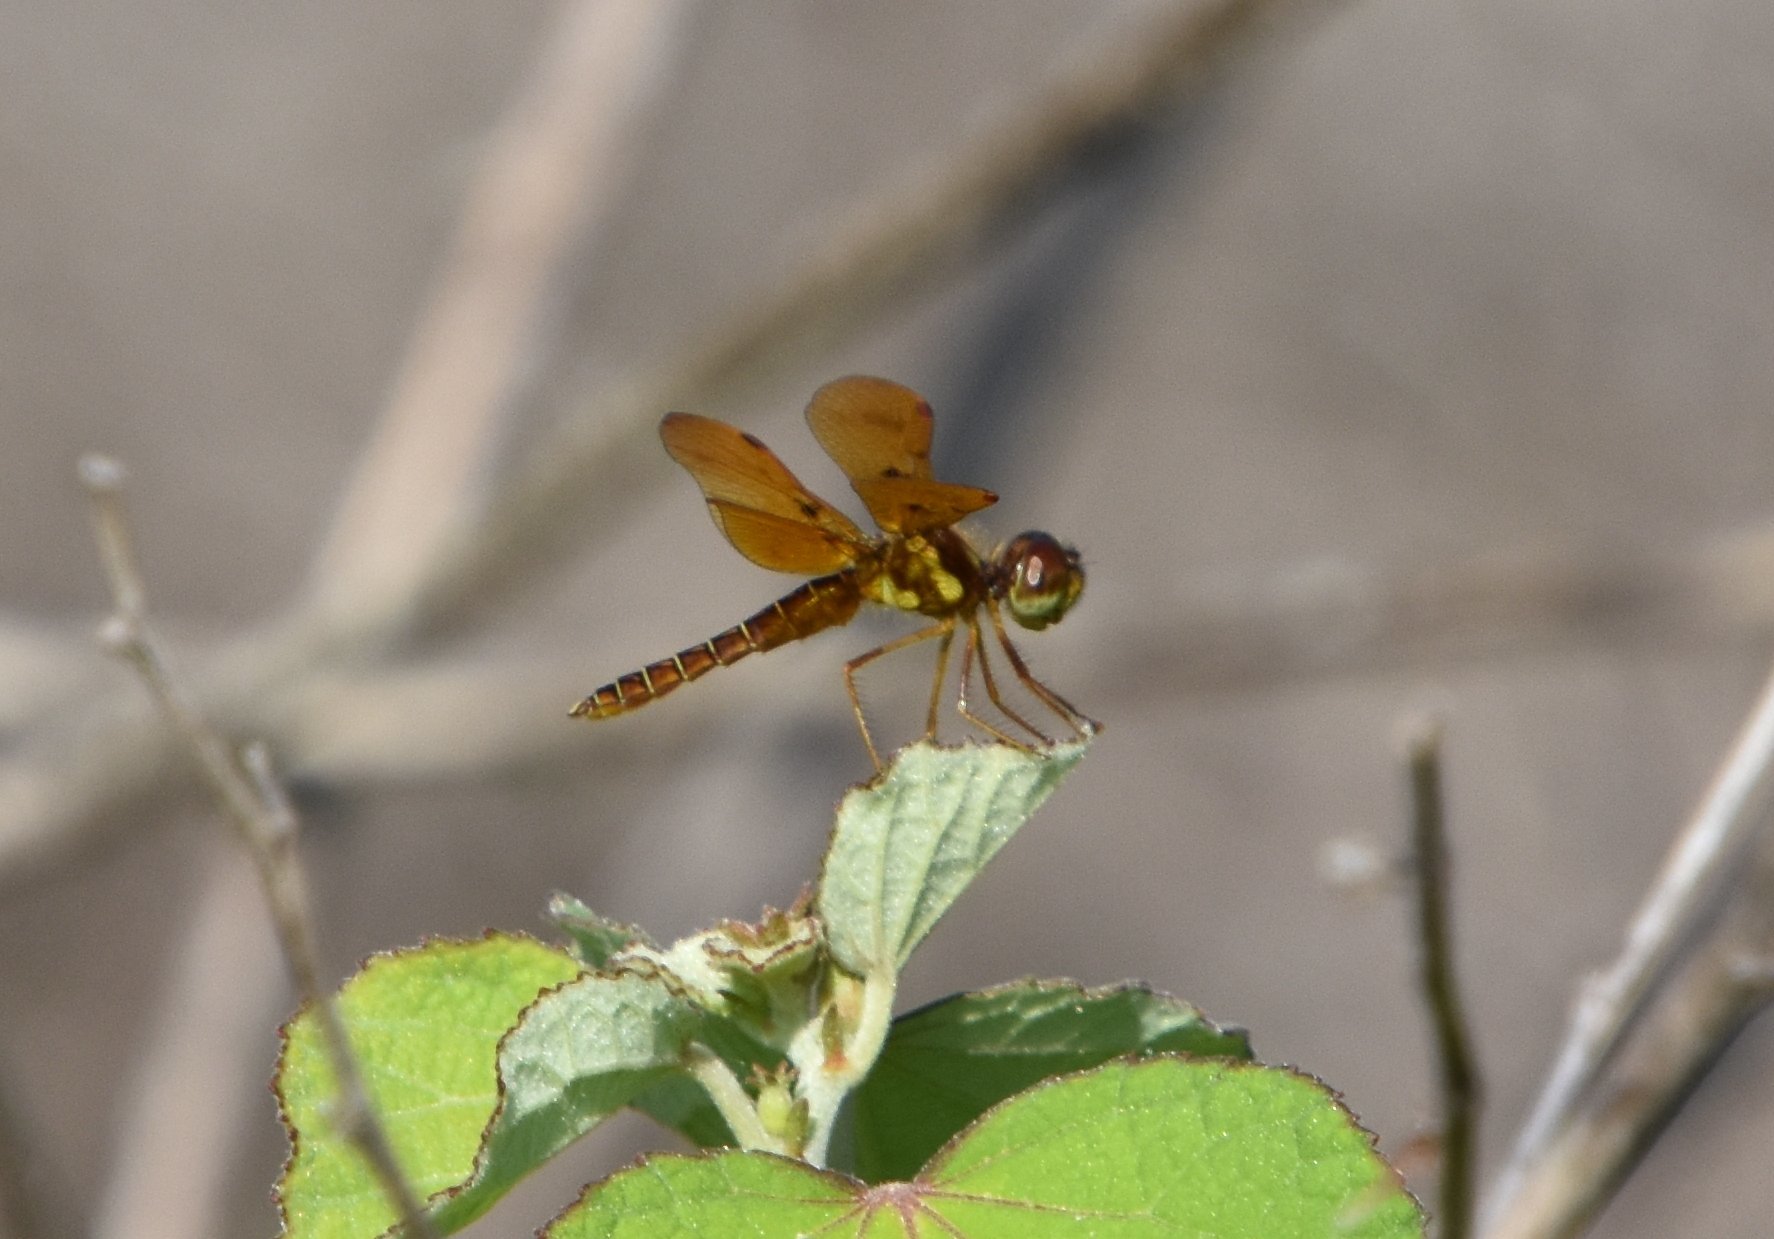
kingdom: Animalia
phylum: Arthropoda
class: Insecta
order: Odonata
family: Libellulidae
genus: Perithemis
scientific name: Perithemis tenera
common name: Eastern amberwing
